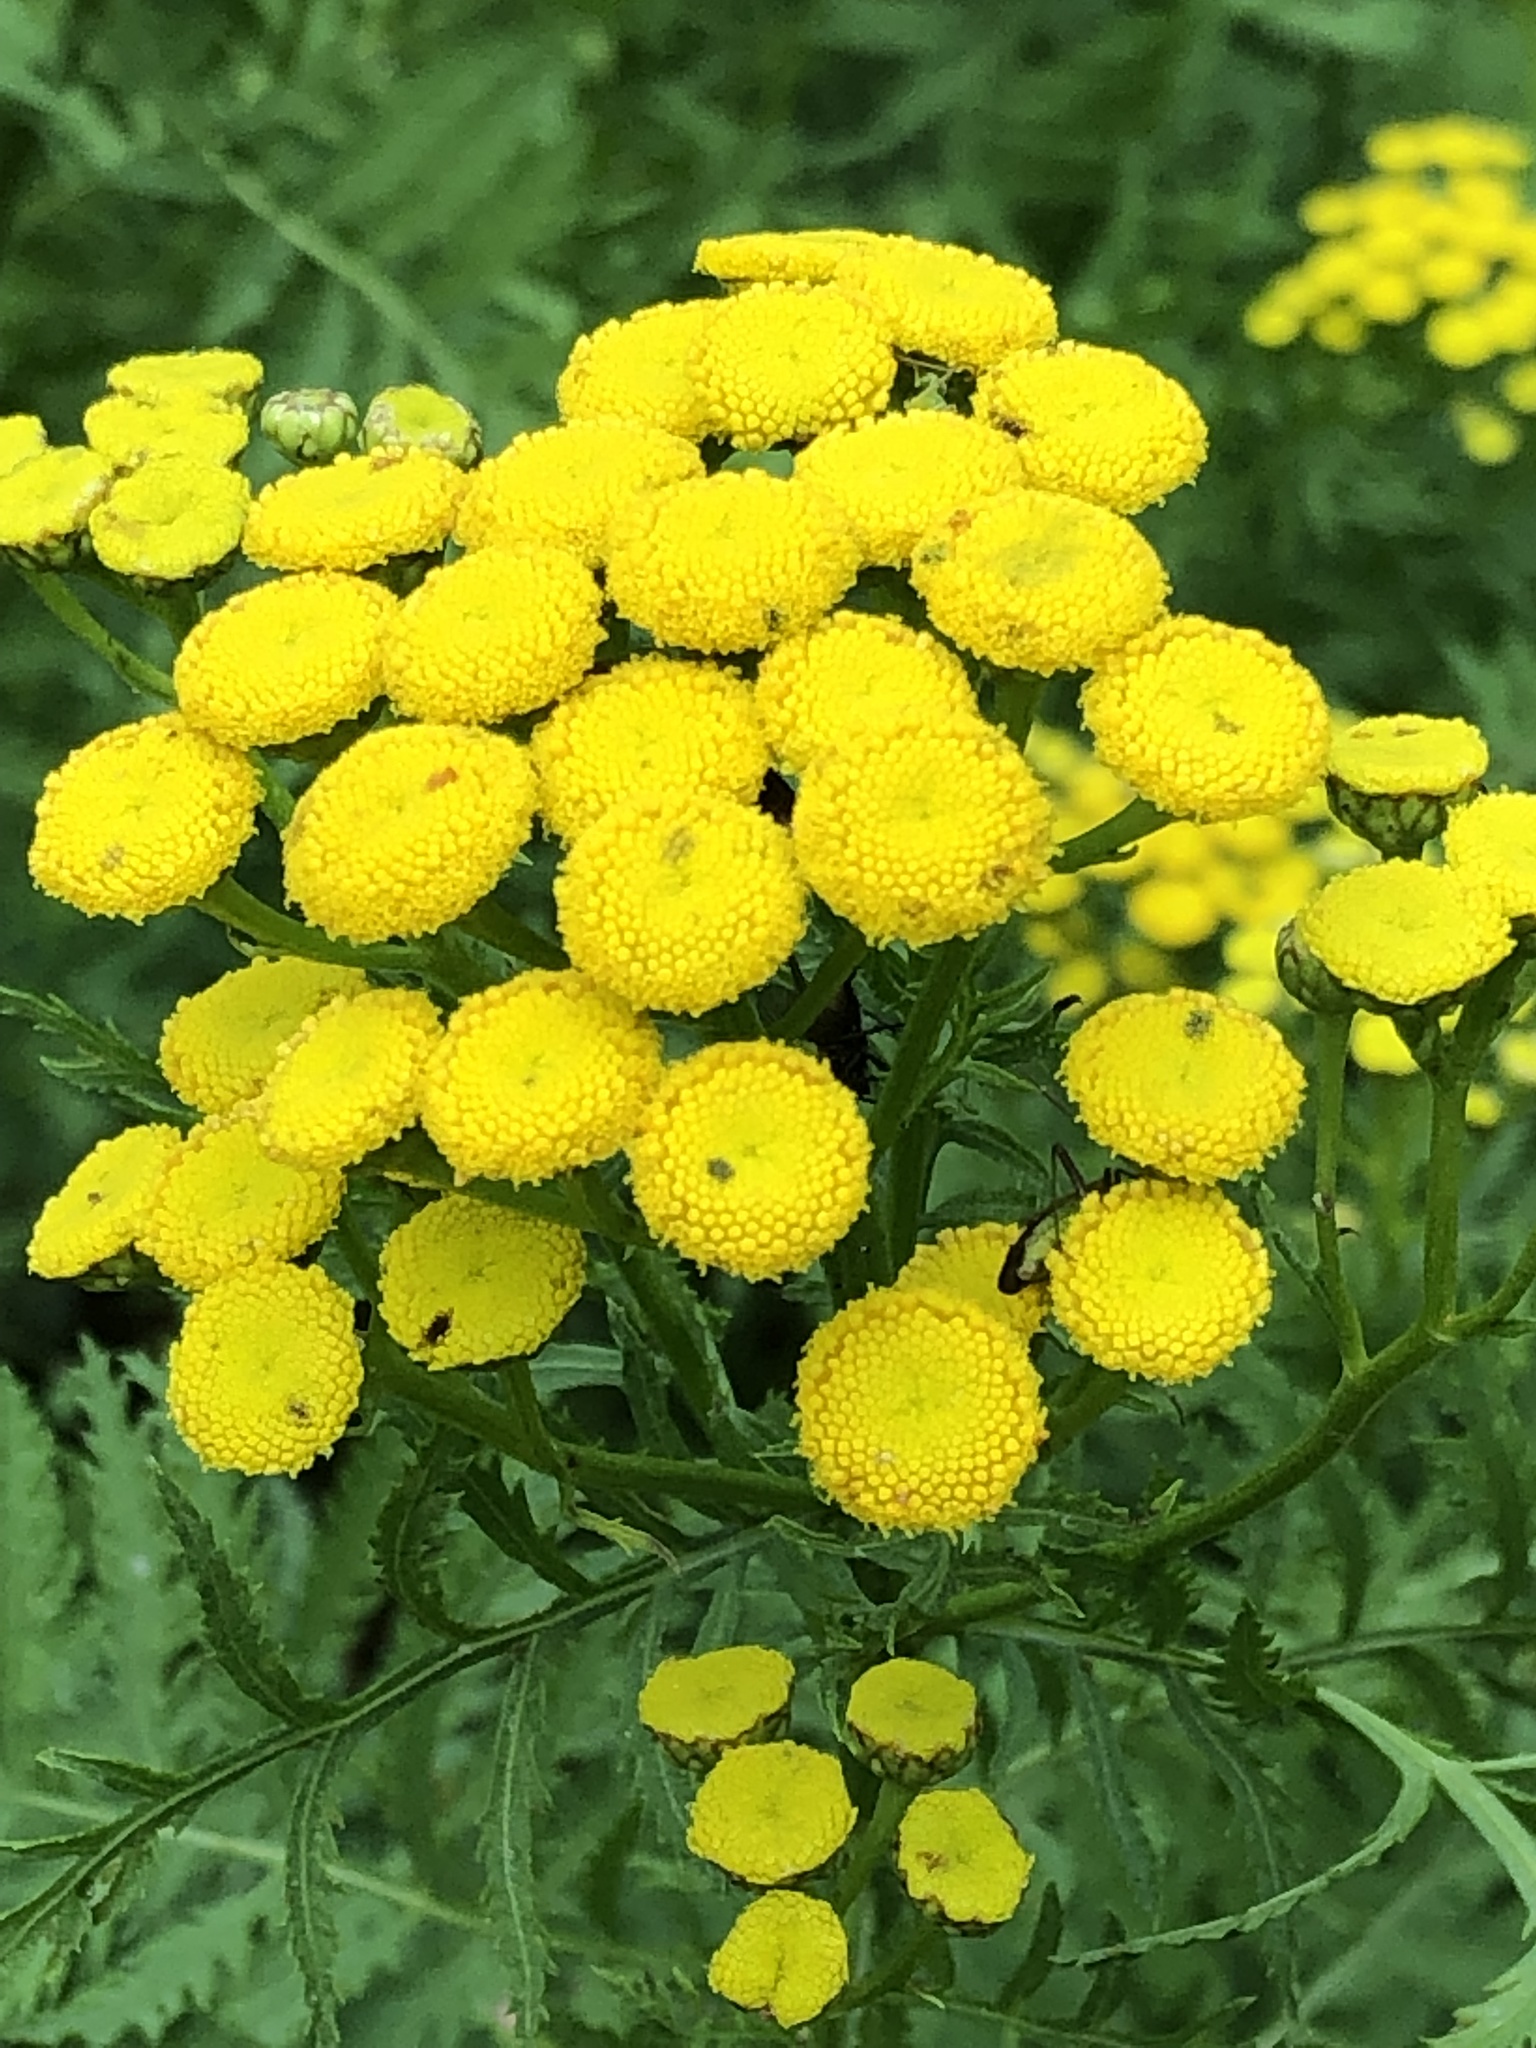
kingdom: Plantae
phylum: Tracheophyta
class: Magnoliopsida
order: Asterales
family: Asteraceae
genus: Tanacetum
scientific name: Tanacetum vulgare
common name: Common tansy
